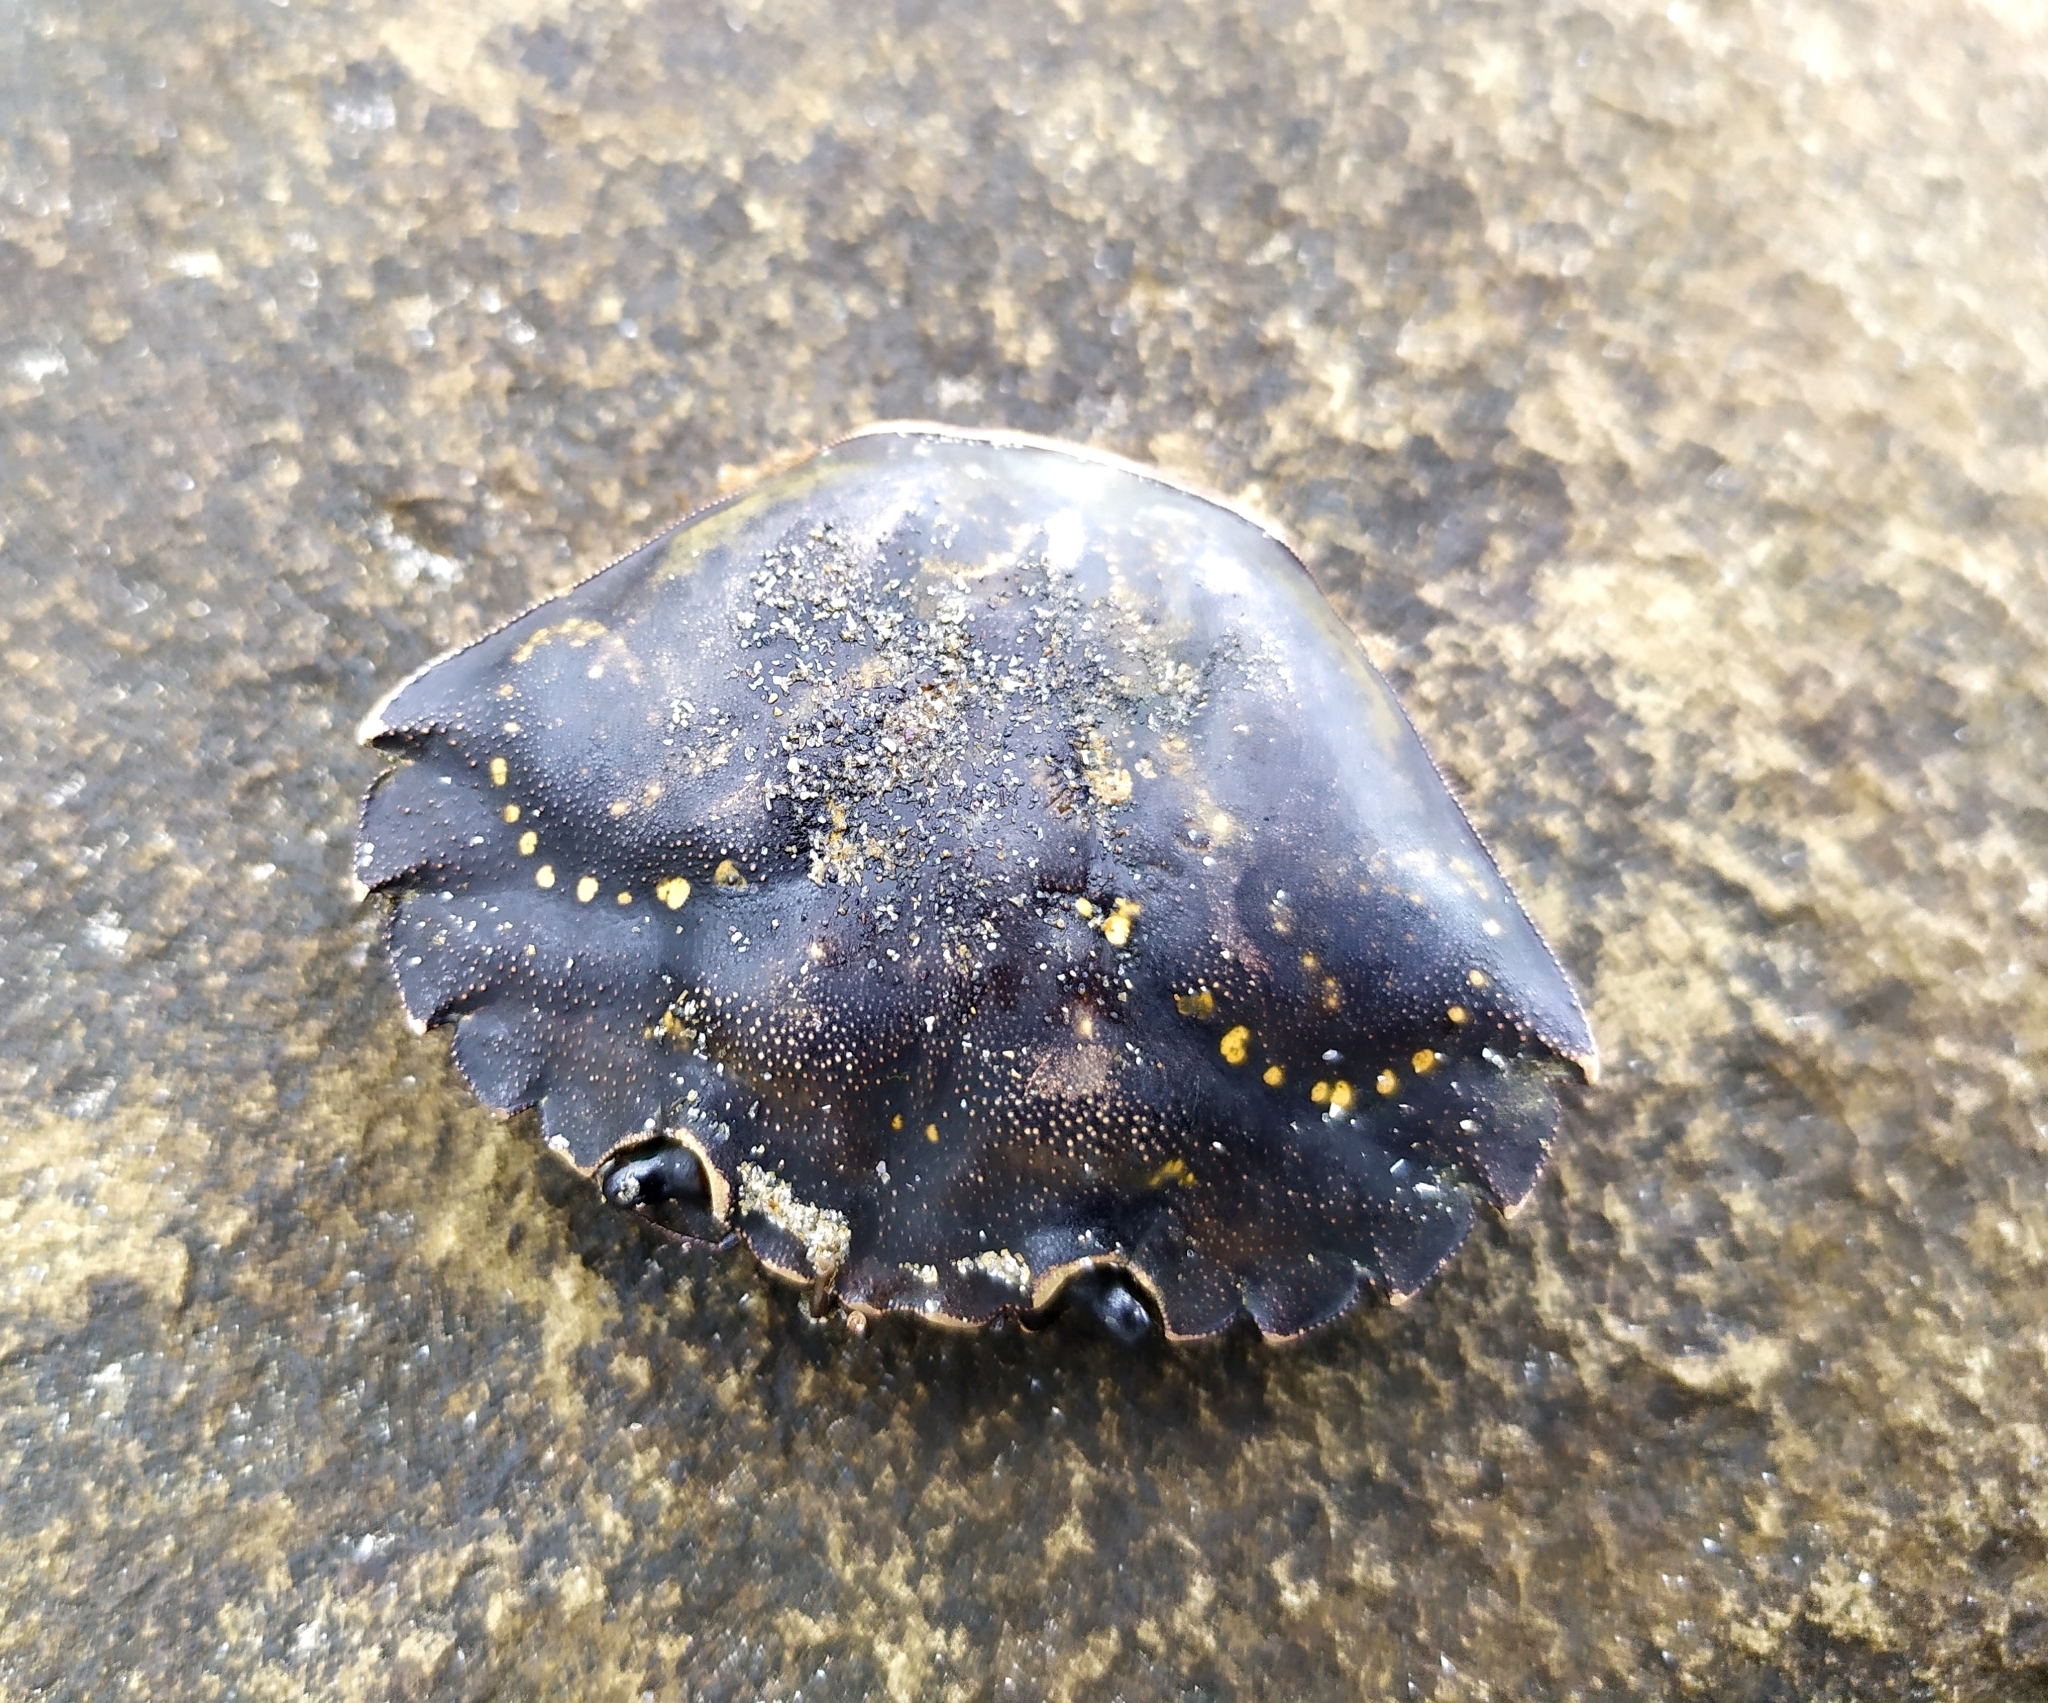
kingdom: Animalia
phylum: Arthropoda
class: Malacostraca
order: Decapoda
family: Carcinidae
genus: Carcinus
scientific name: Carcinus maenas
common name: European green crab
